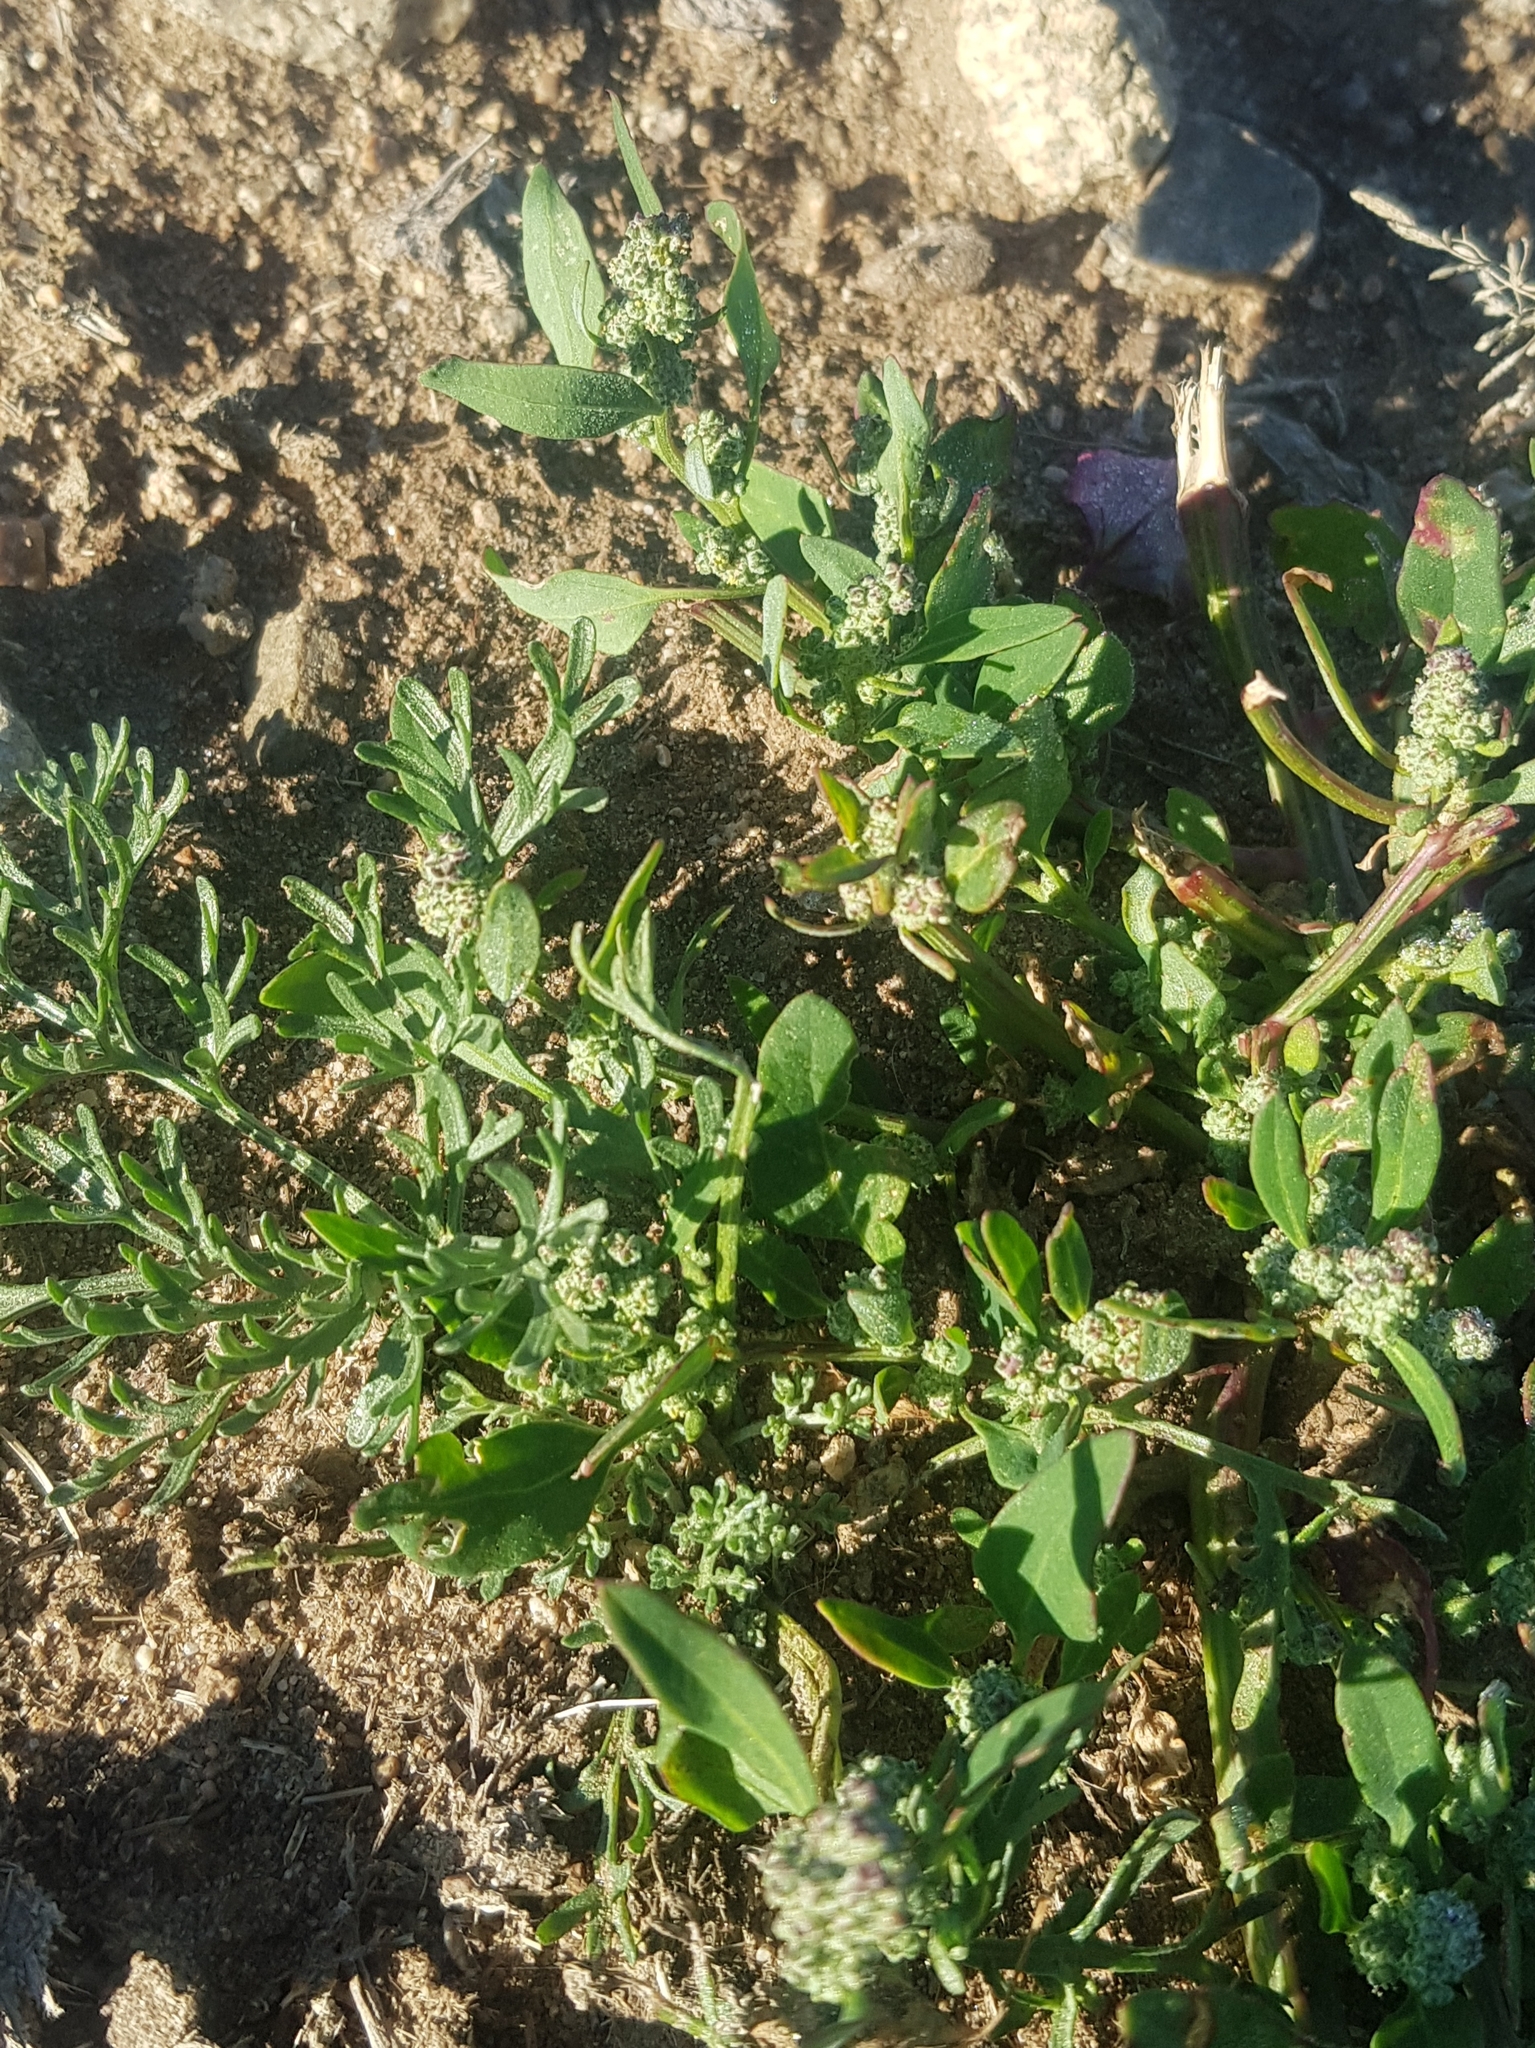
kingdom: Plantae
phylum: Tracheophyta
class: Magnoliopsida
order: Caryophyllales
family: Amaranthaceae
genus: Chenopodium
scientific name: Chenopodium album
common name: Fat-hen
